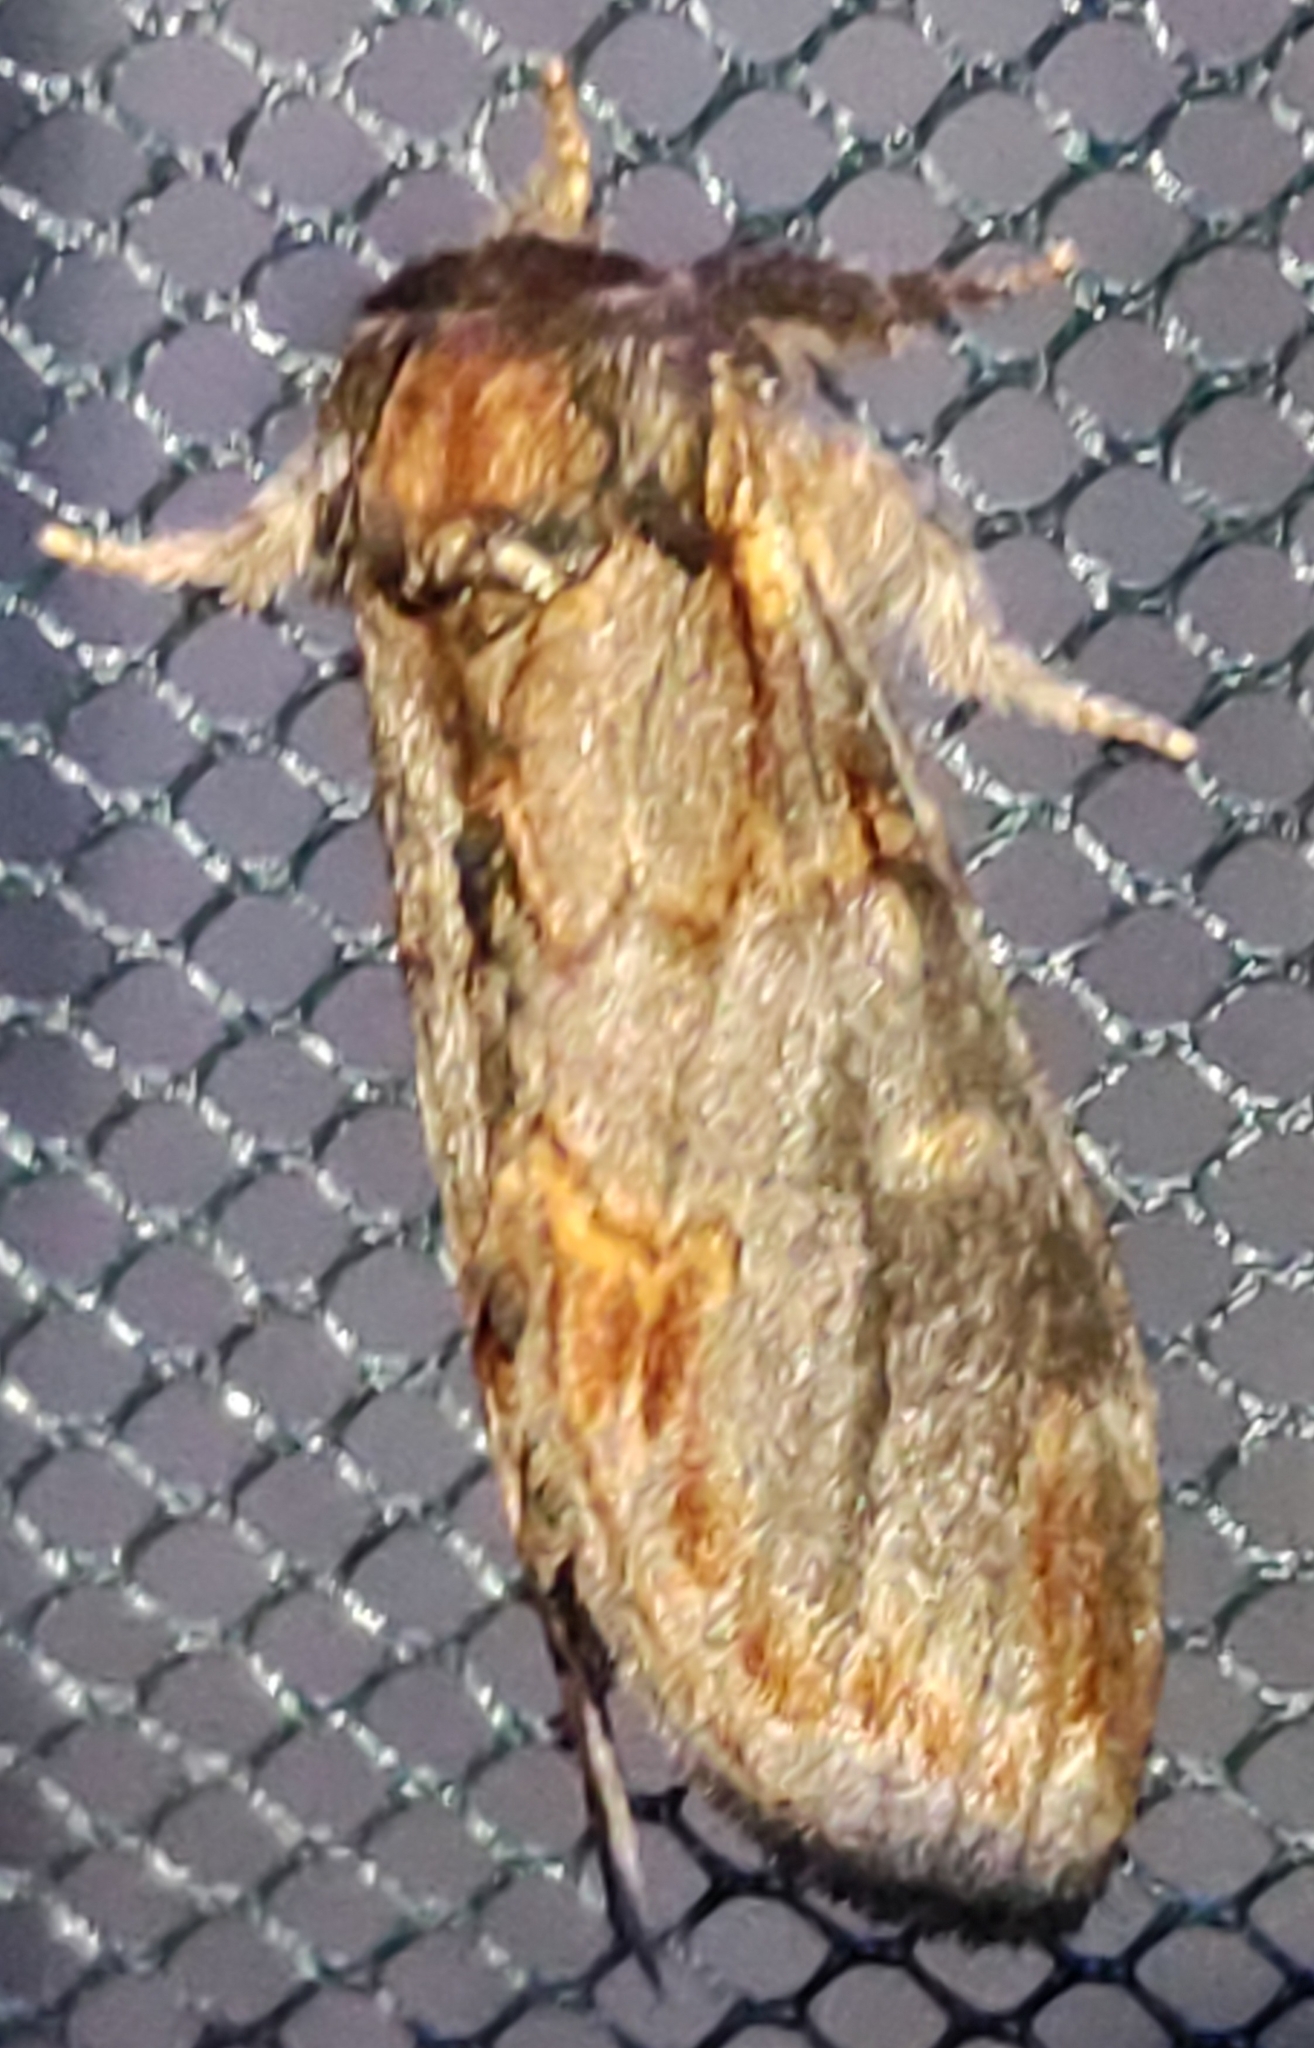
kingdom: Animalia
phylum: Arthropoda
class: Insecta
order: Lepidoptera
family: Notodontidae
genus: Notodonta
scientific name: Notodonta dromedarius
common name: Iron prominent
